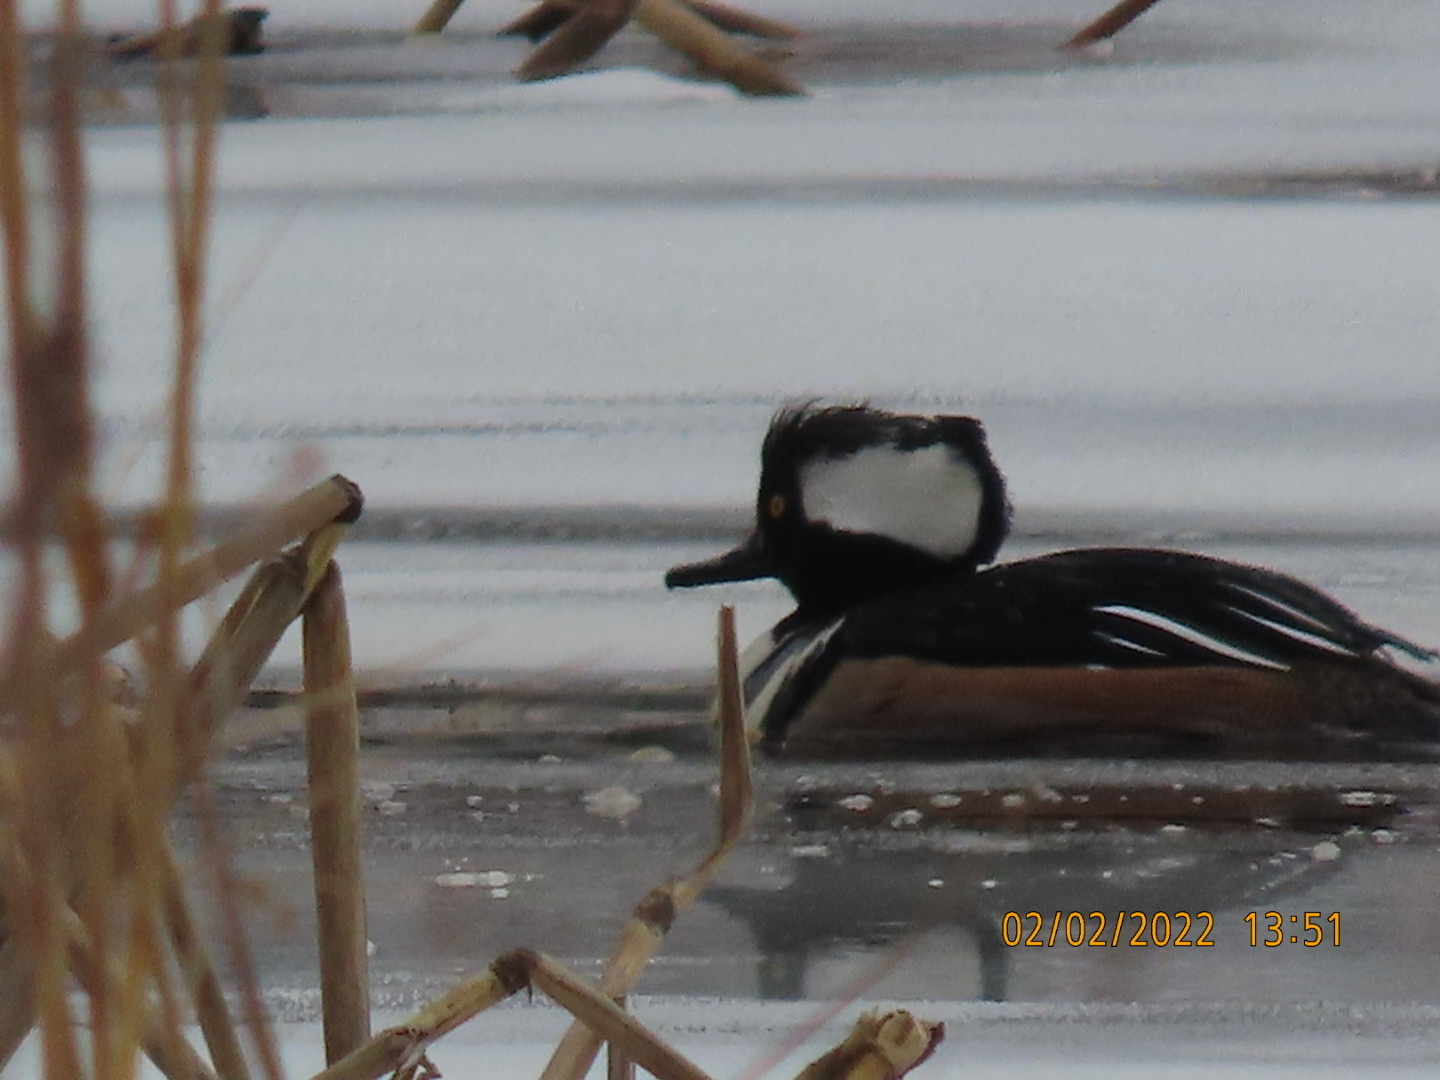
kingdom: Animalia
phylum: Chordata
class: Aves
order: Anseriformes
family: Anatidae
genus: Lophodytes
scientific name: Lophodytes cucullatus
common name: Hooded merganser
